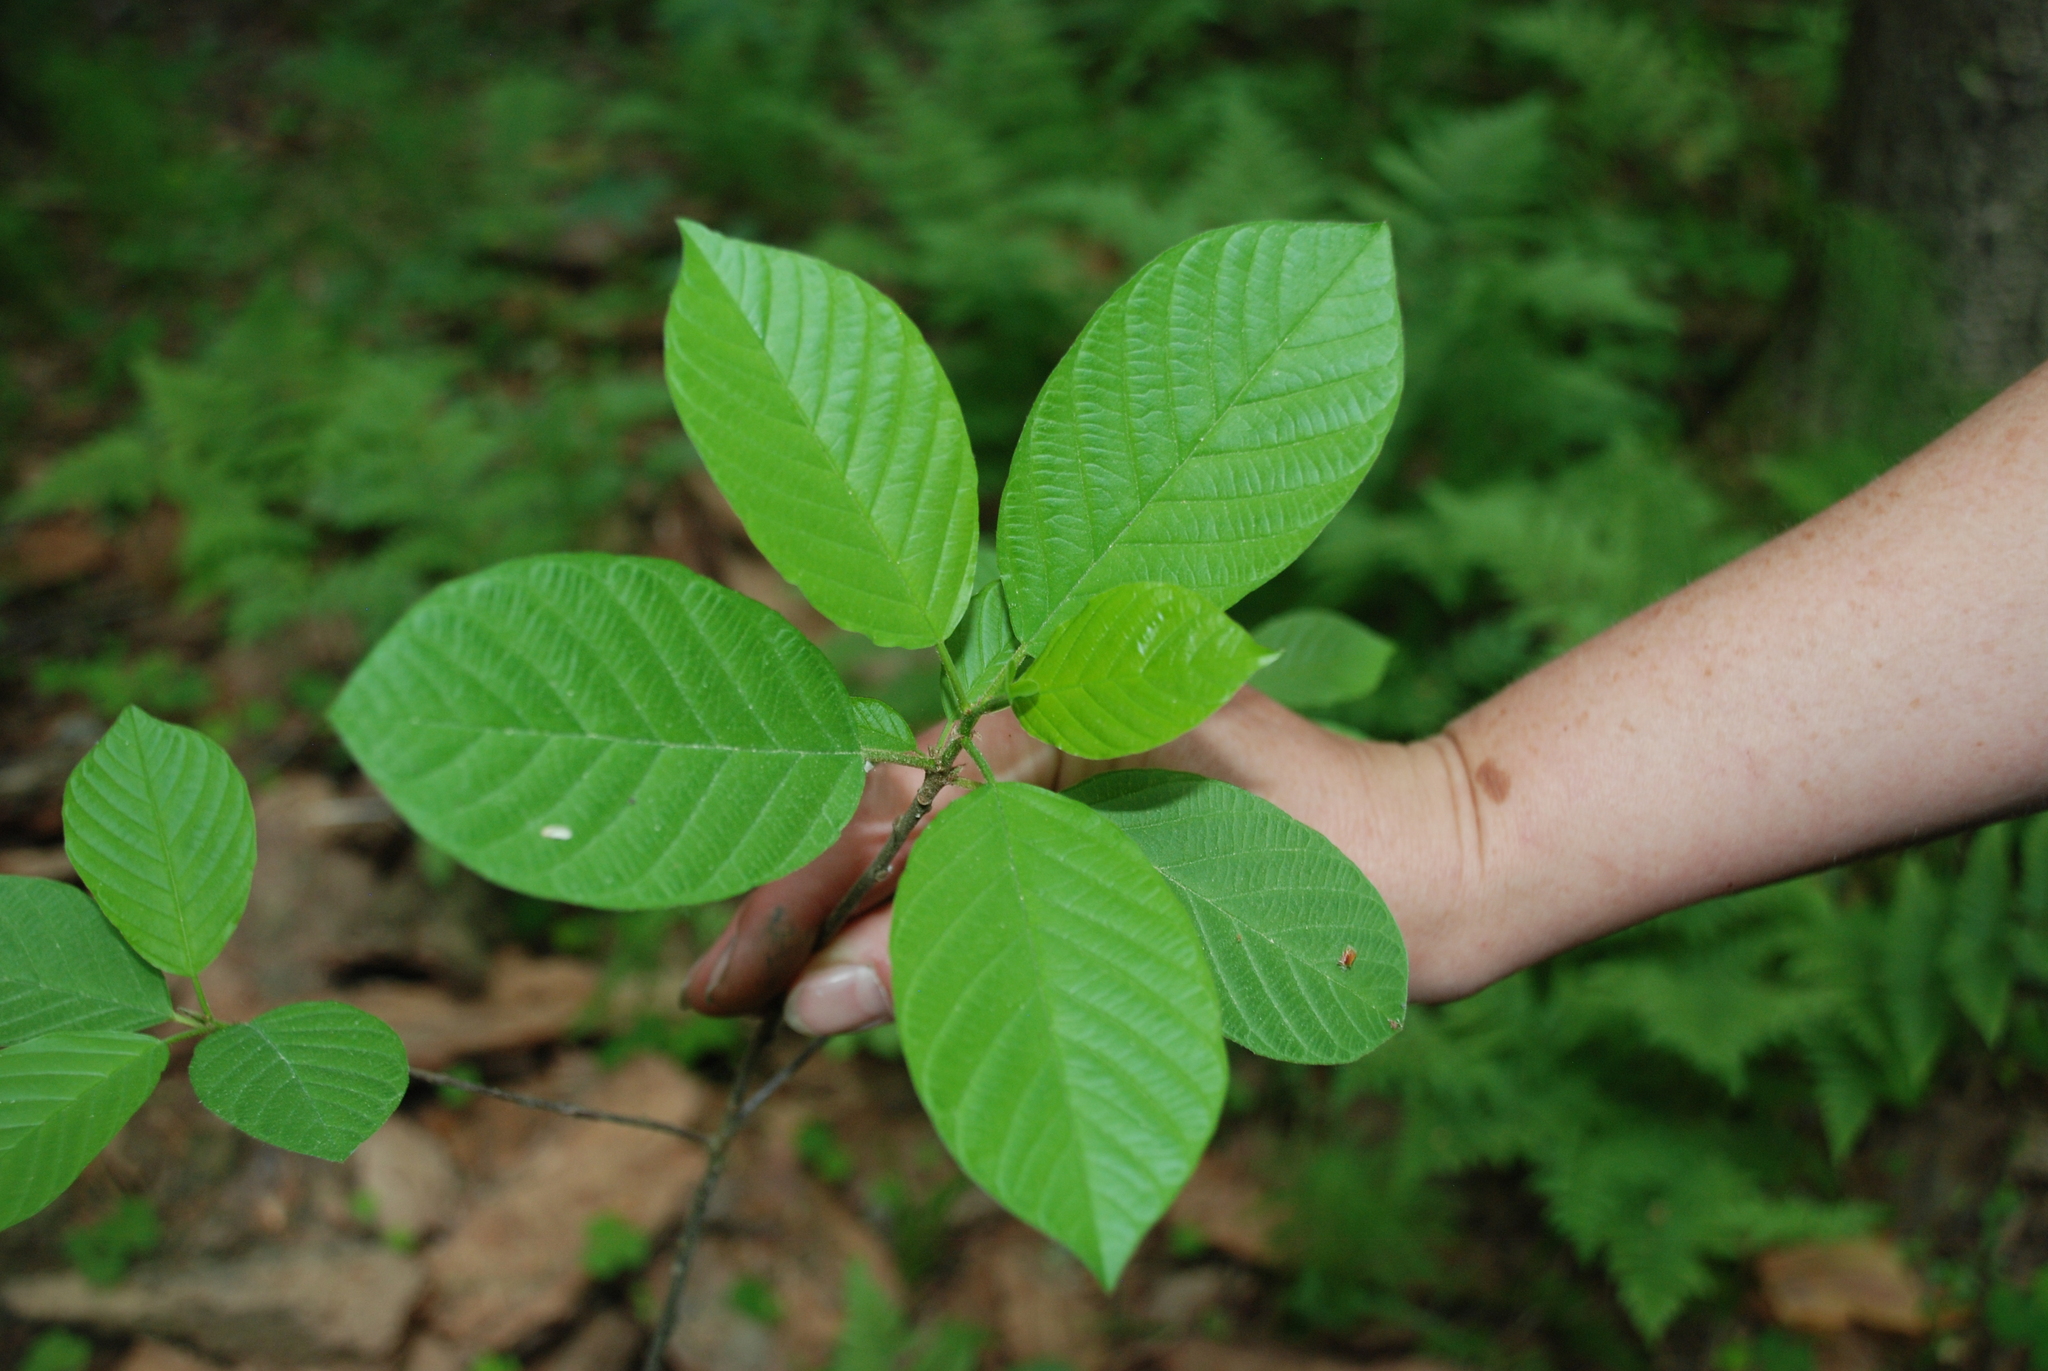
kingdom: Plantae
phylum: Tracheophyta
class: Magnoliopsida
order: Rosales
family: Rhamnaceae
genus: Frangula
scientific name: Frangula alnus
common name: Alder buckthorn
